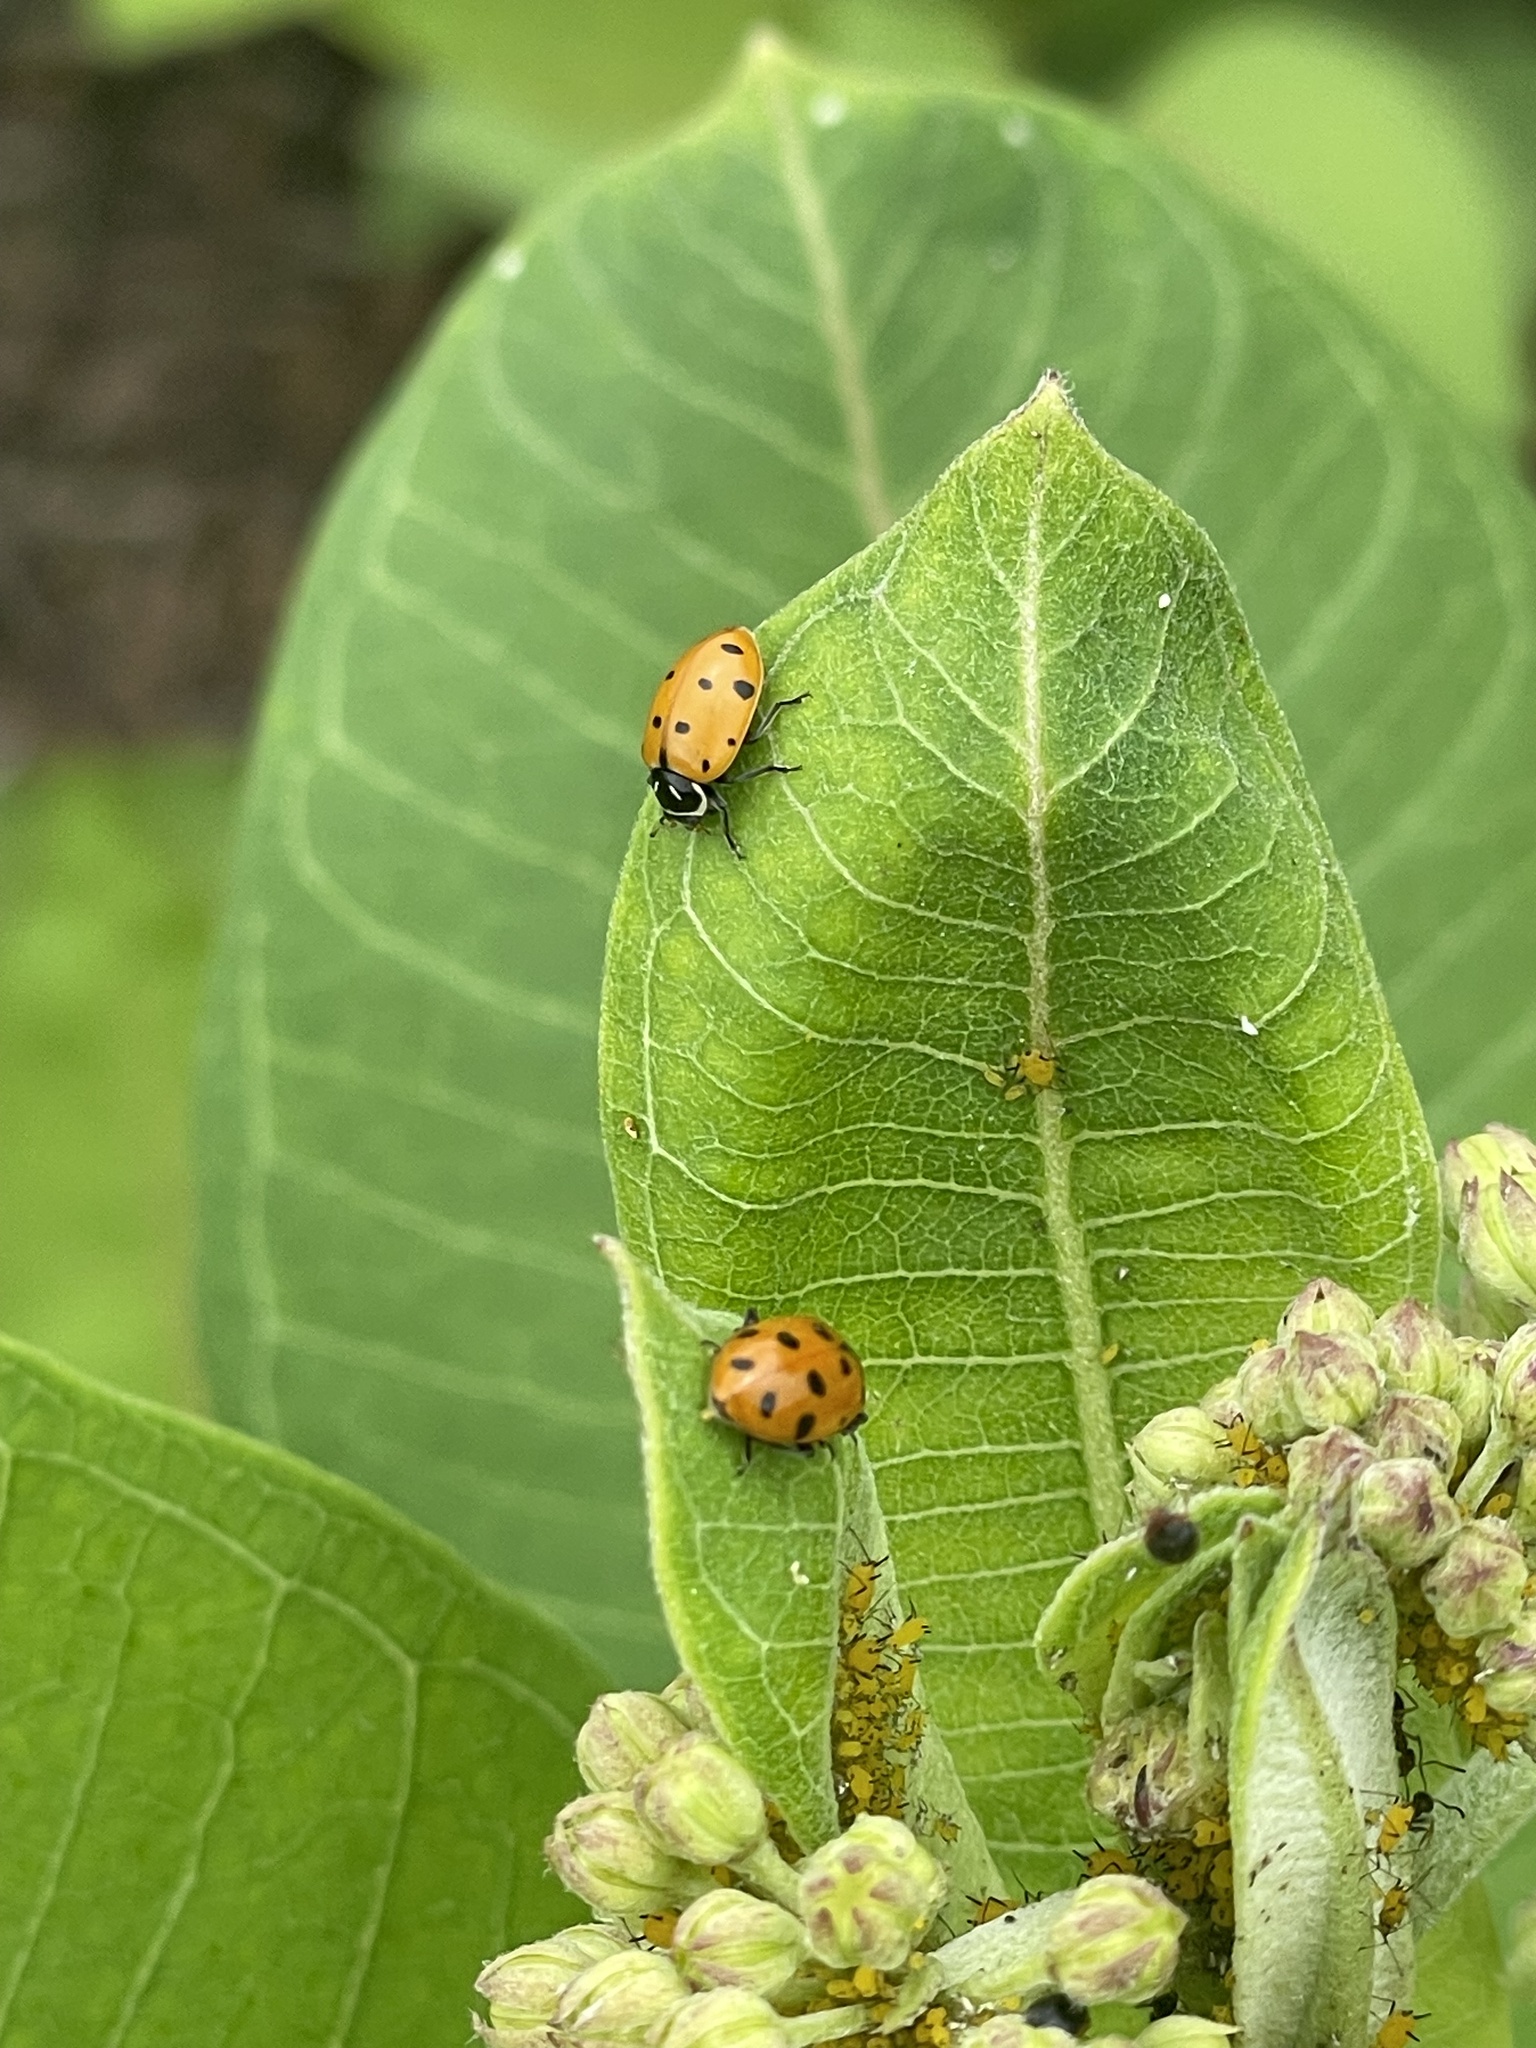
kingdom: Animalia
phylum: Arthropoda
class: Insecta
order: Coleoptera
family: Coccinellidae
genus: Hippodamia
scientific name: Hippodamia convergens
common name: Convergent lady beetle
